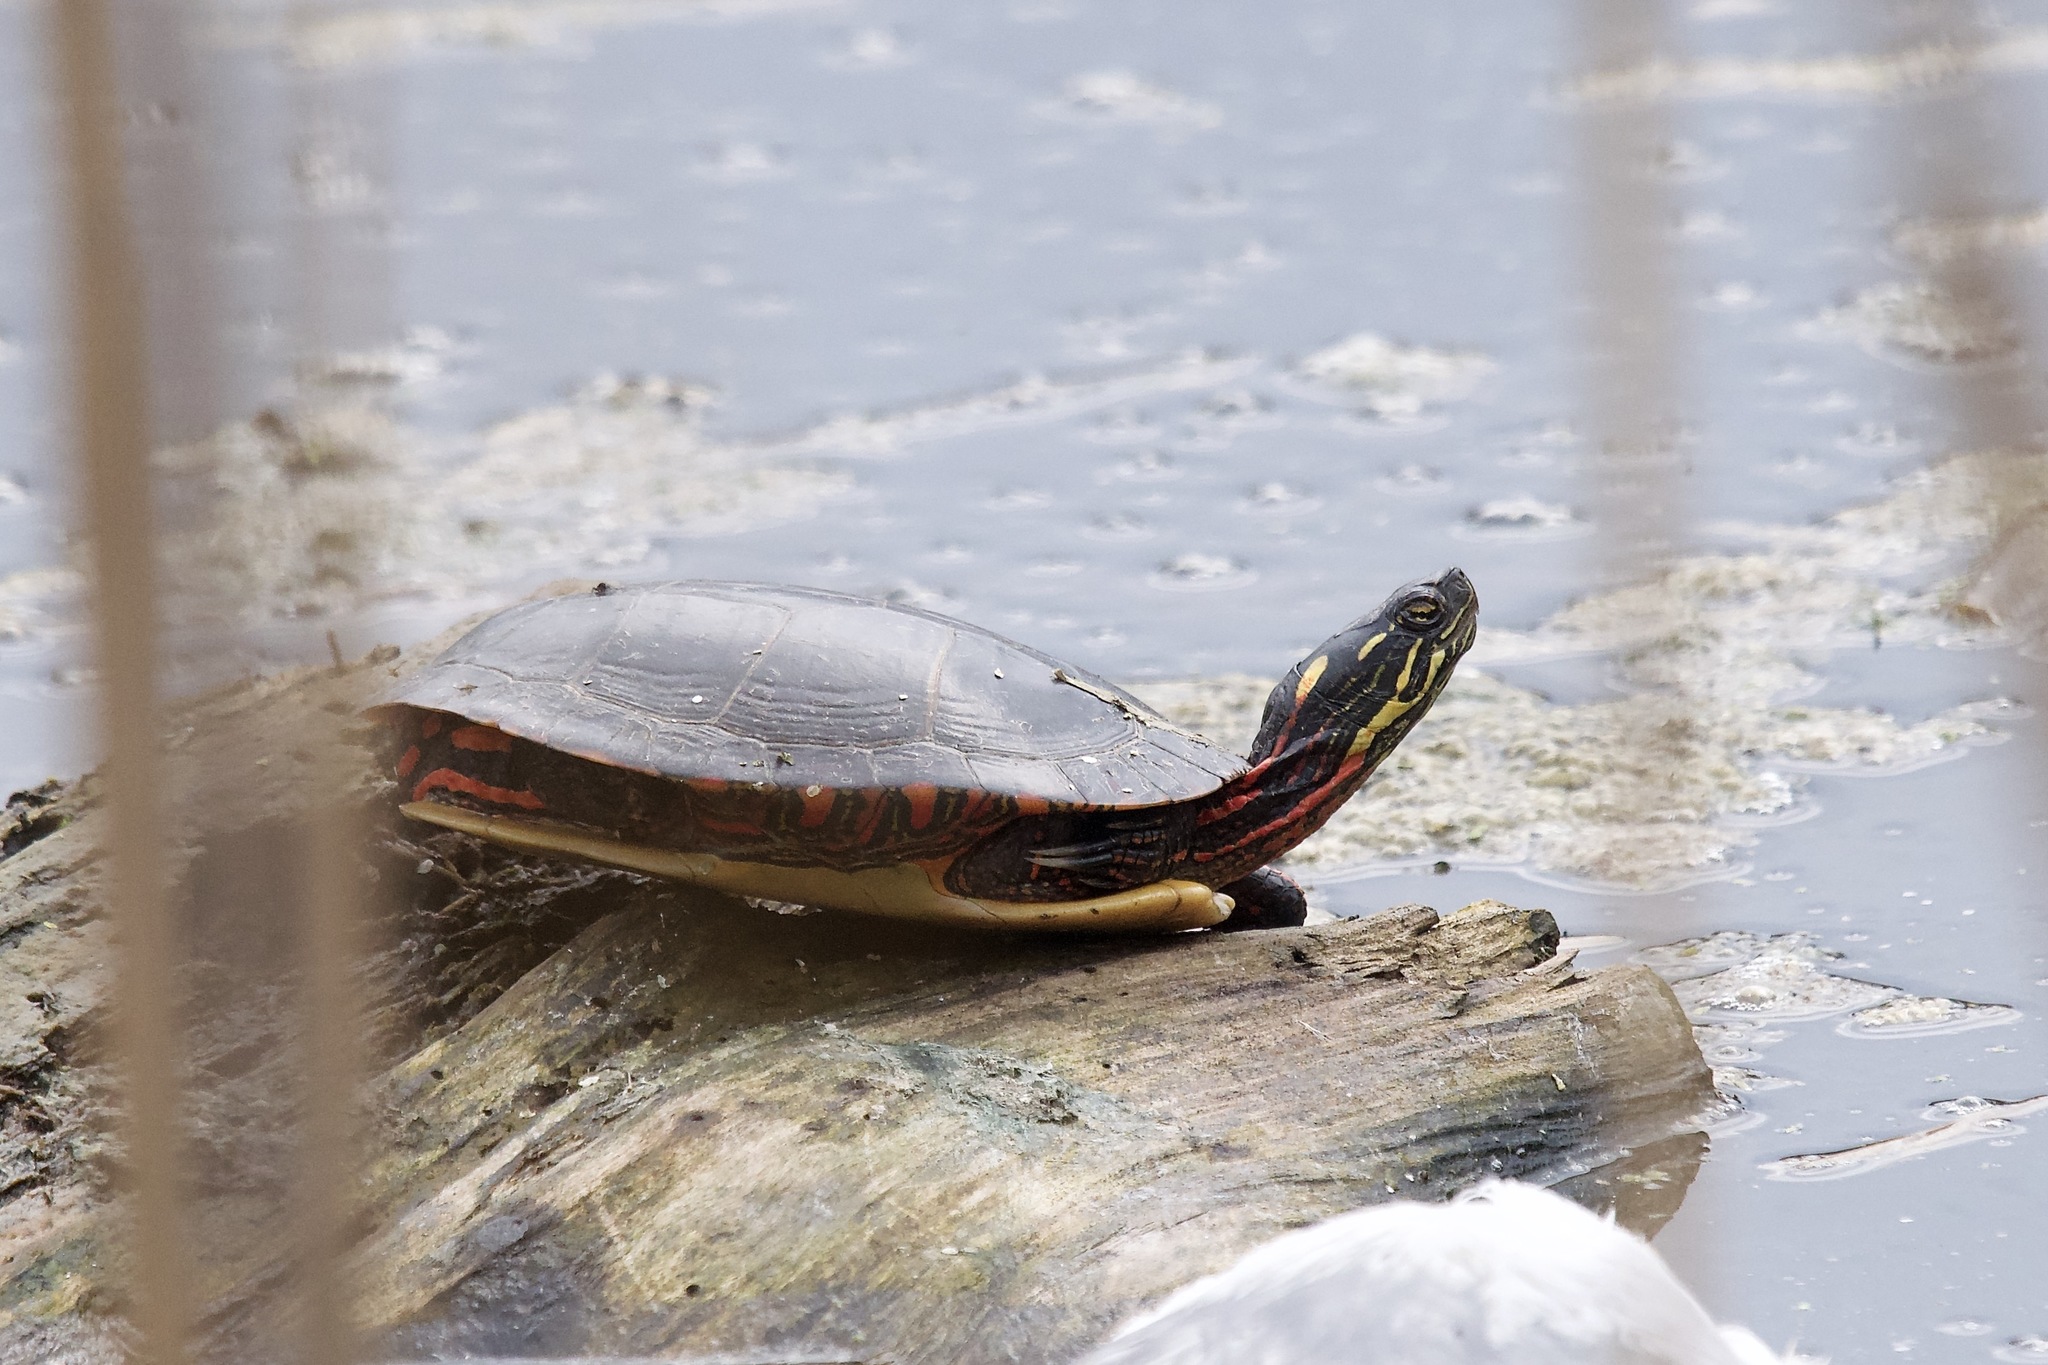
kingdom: Animalia
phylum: Chordata
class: Testudines
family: Emydidae
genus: Chrysemys
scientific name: Chrysemys picta
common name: Painted turtle
